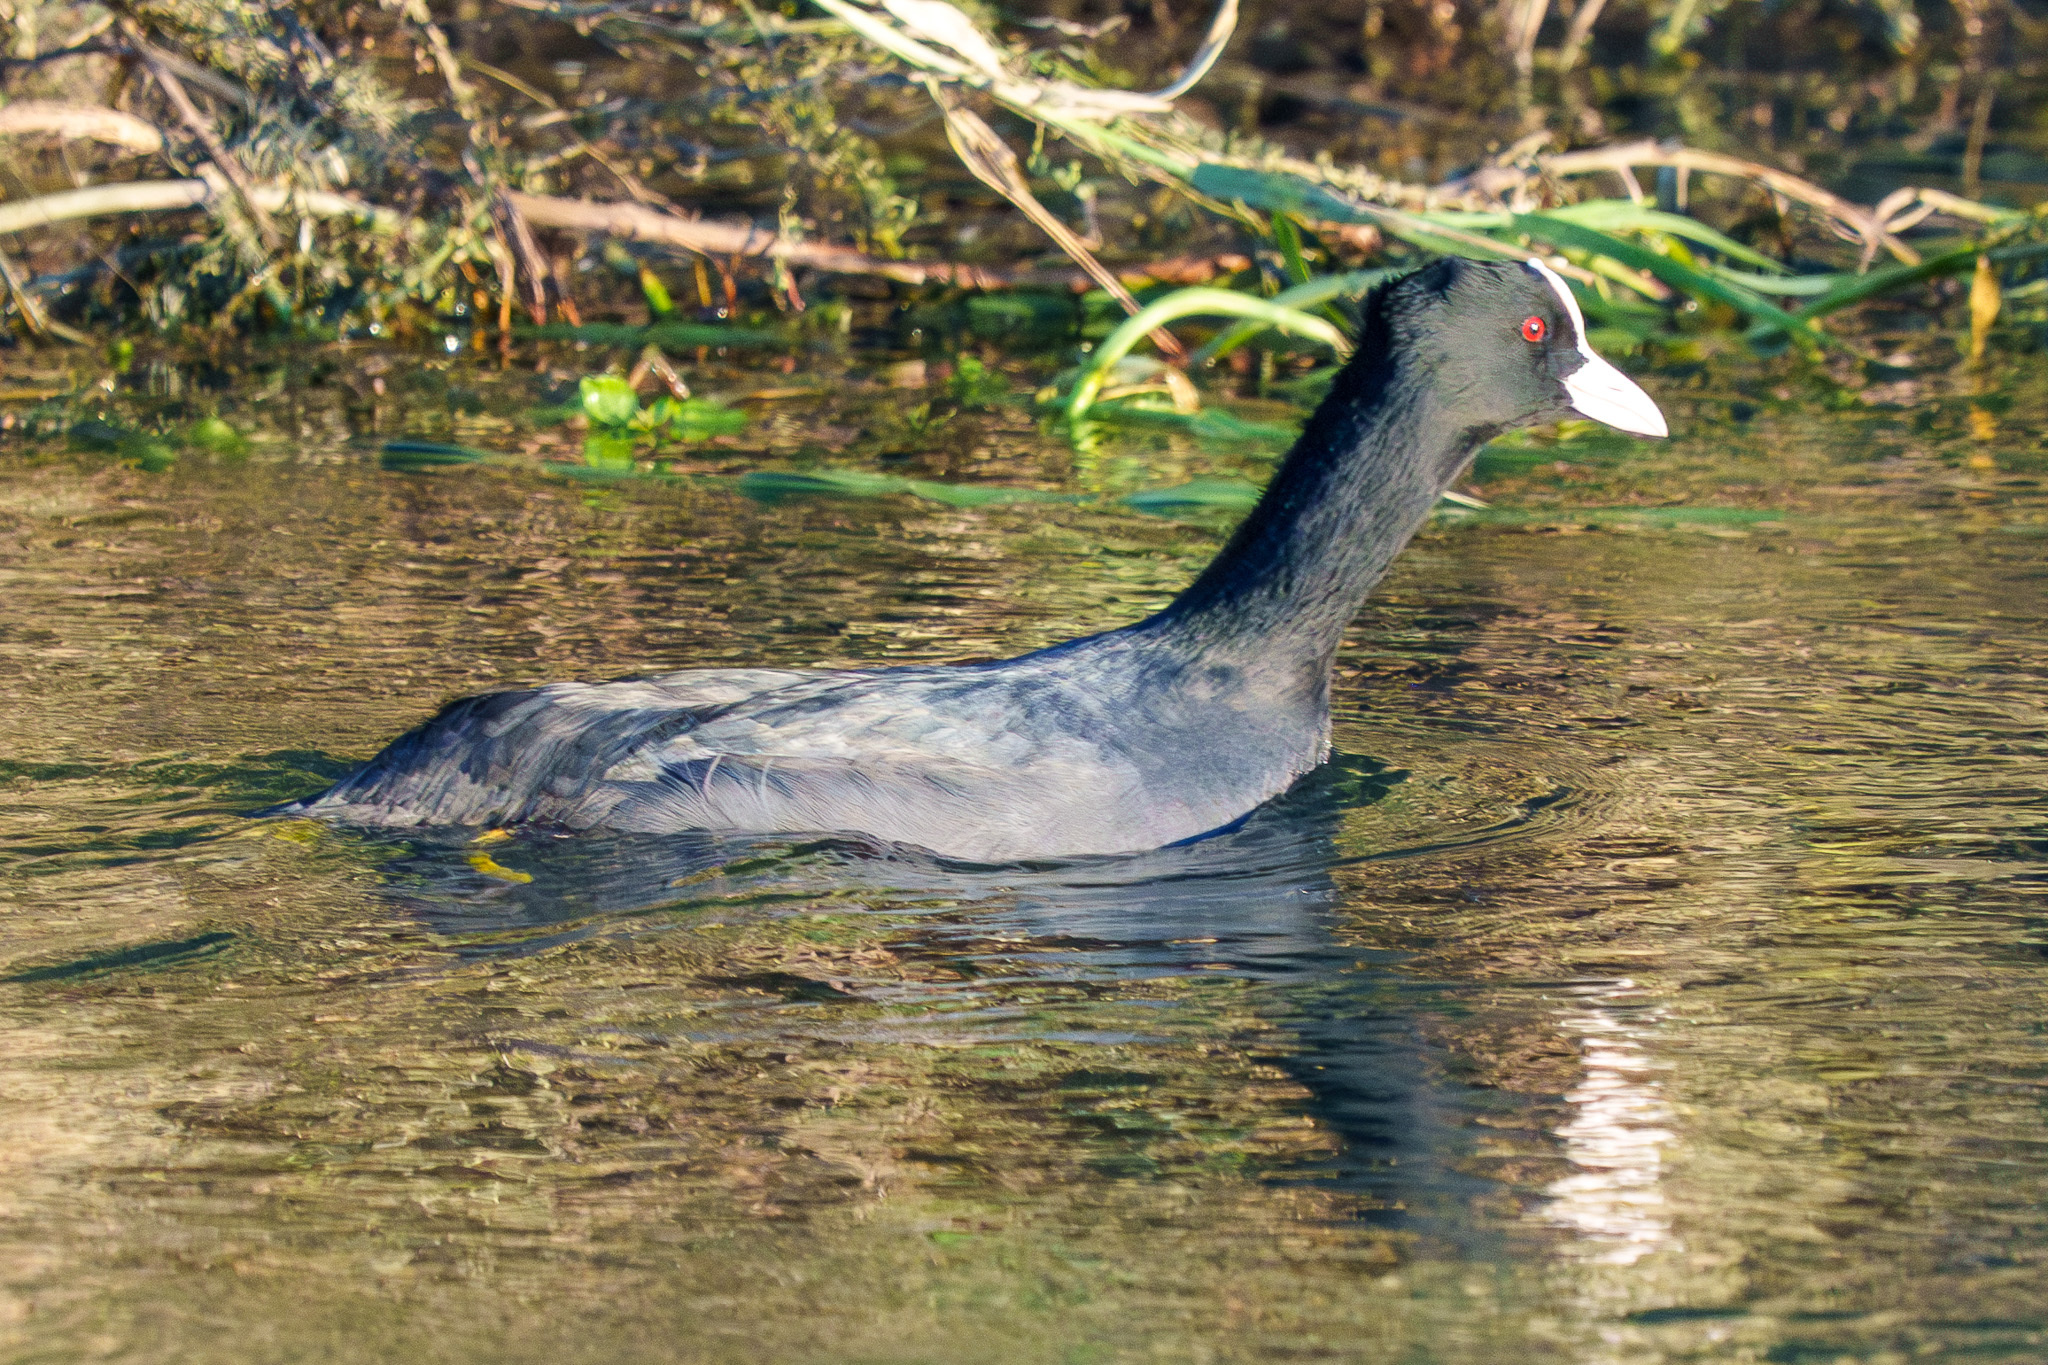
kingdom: Animalia
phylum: Chordata
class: Aves
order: Gruiformes
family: Rallidae
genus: Fulica
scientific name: Fulica atra
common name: Eurasian coot
